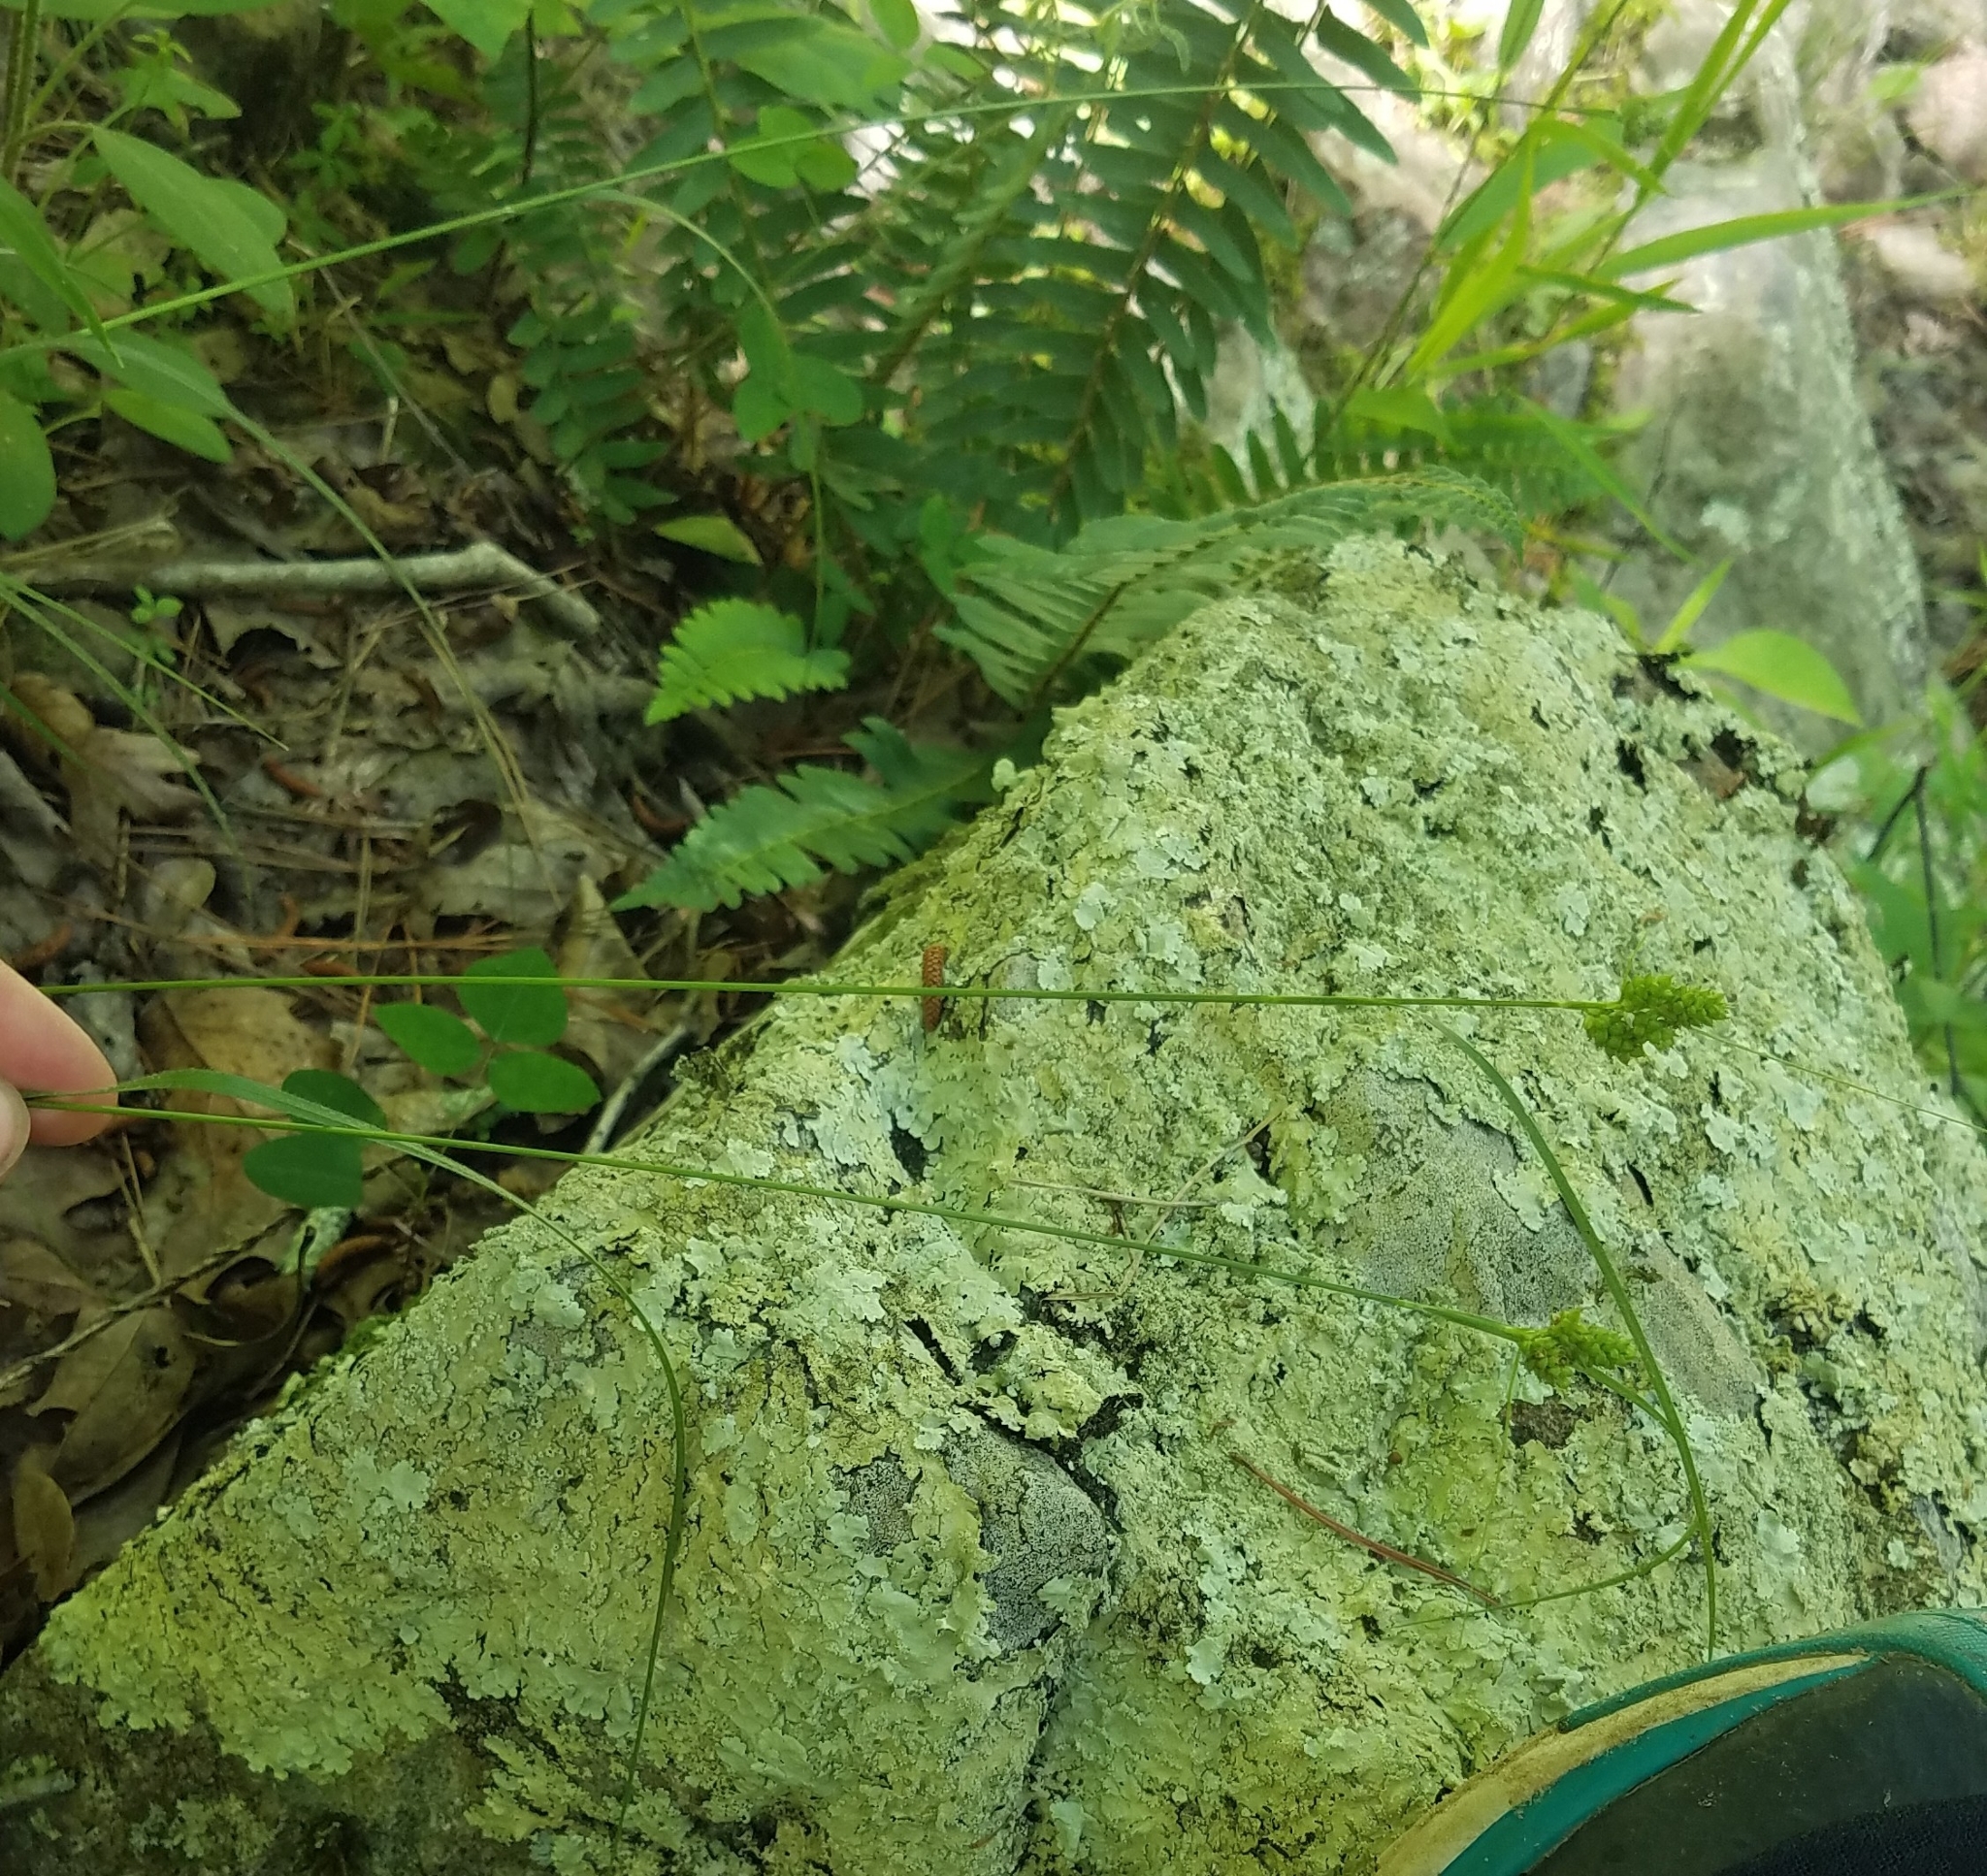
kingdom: Plantae
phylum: Tracheophyta
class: Liliopsida
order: Poales
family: Cyperaceae
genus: Carex
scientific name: Carex hirsutella
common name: Fuzzy wuzzy sedge
